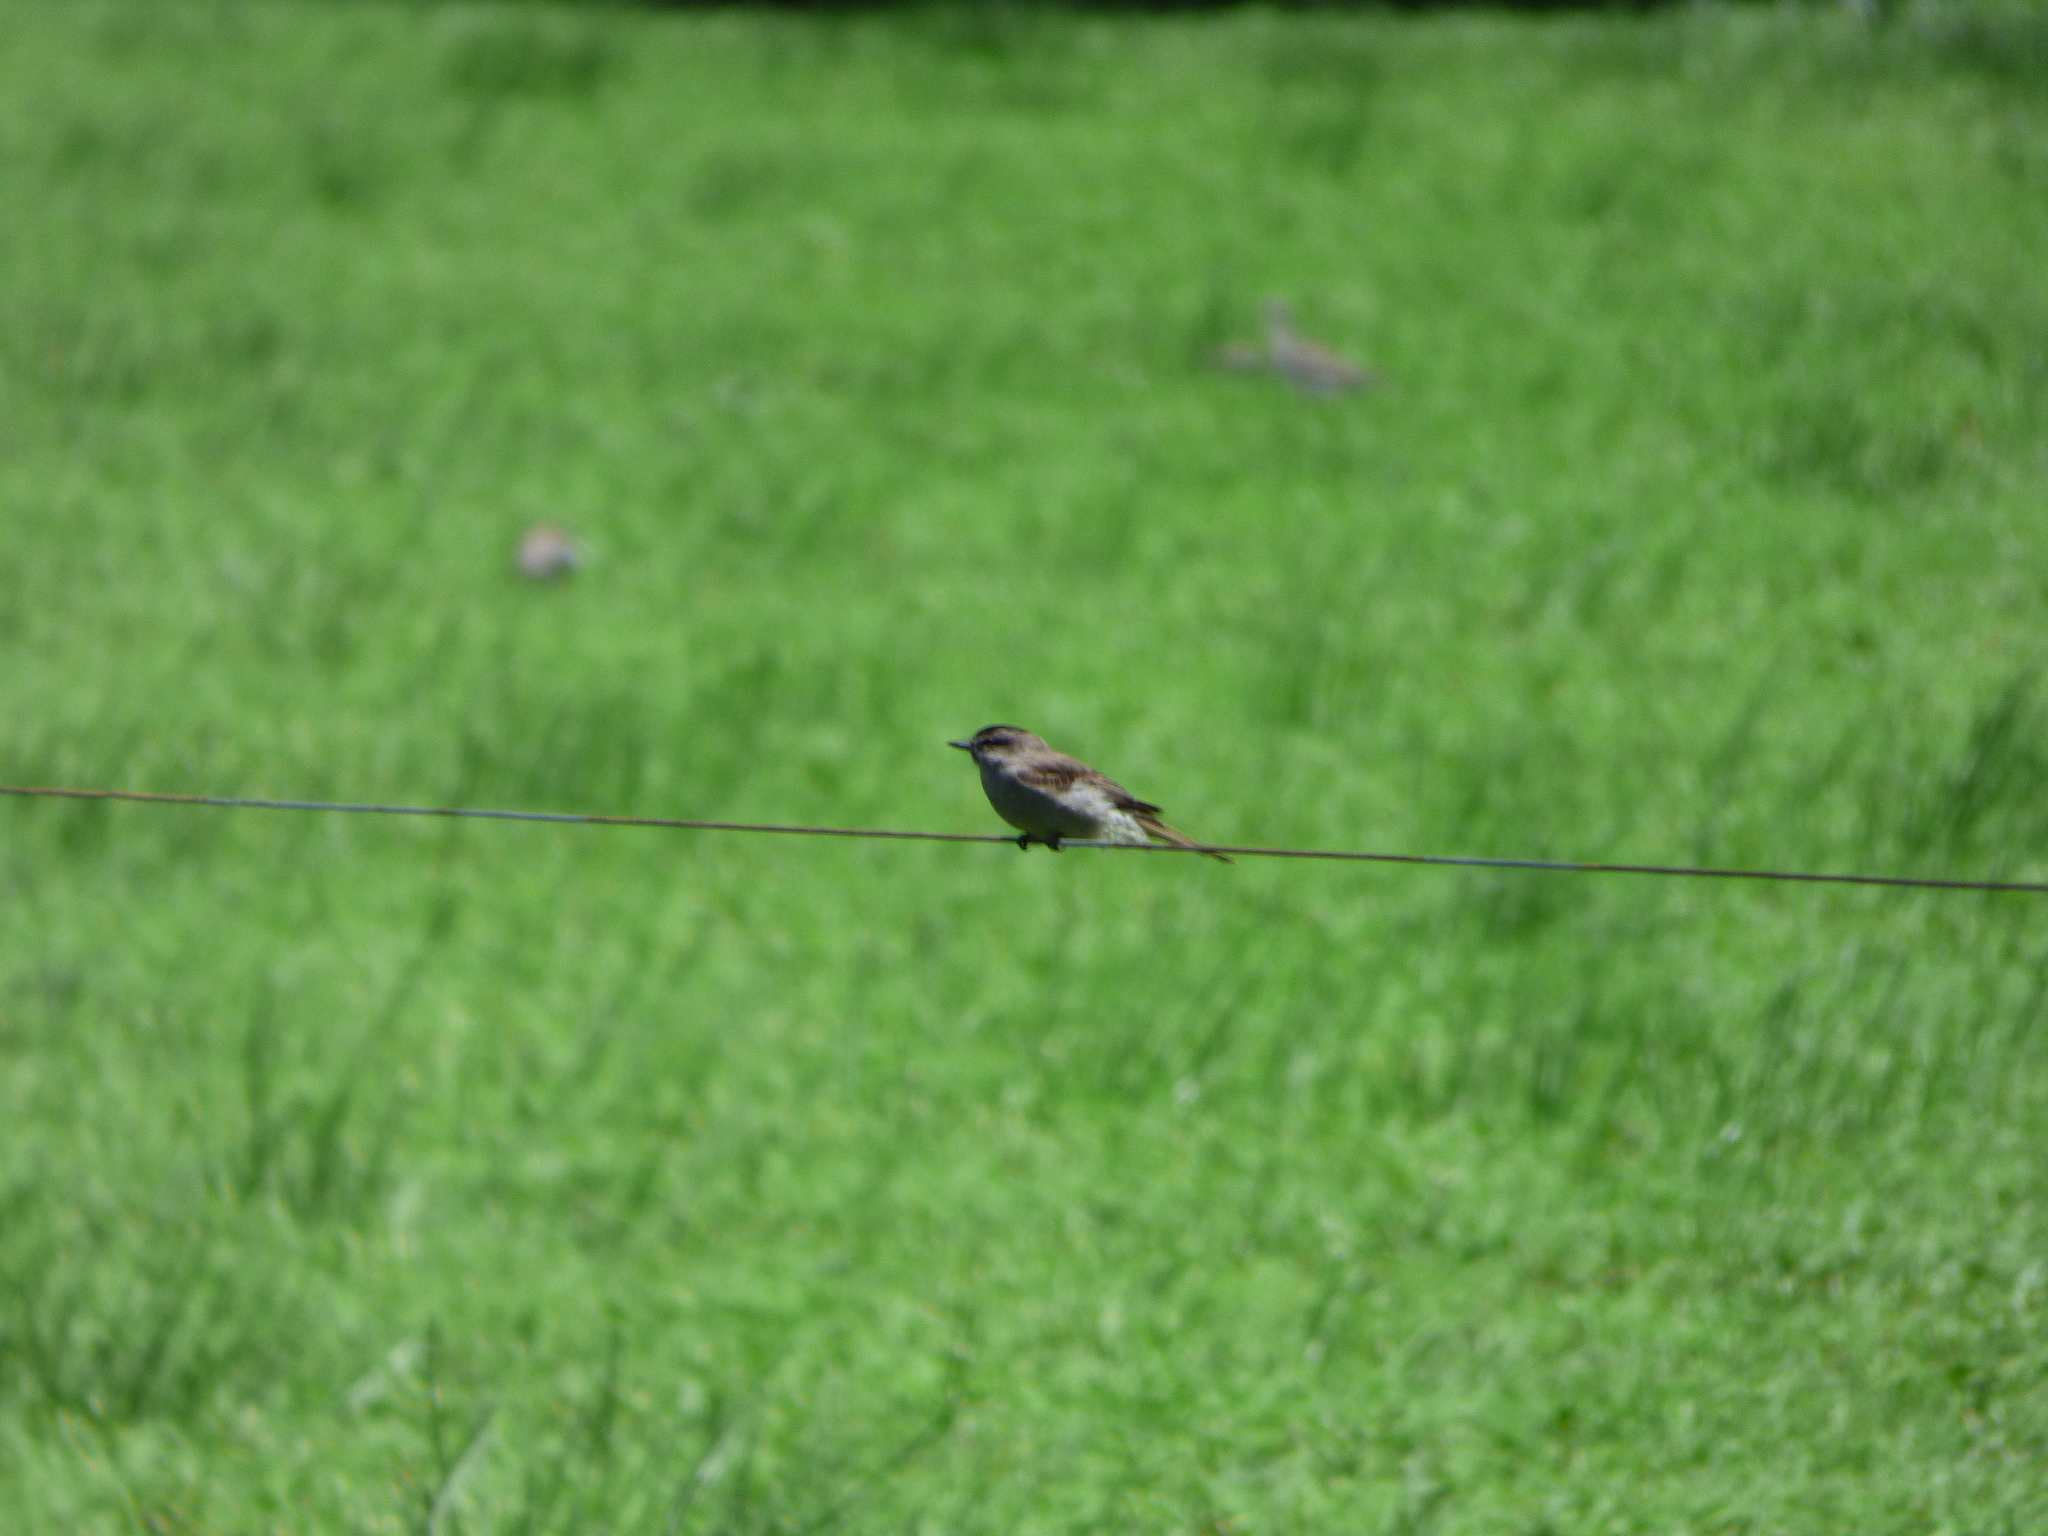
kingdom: Animalia
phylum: Chordata
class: Aves
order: Passeriformes
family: Tyrannidae
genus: Empidonomus
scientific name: Empidonomus aurantioatrocristatus
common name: Crowned slaty flycatcher
